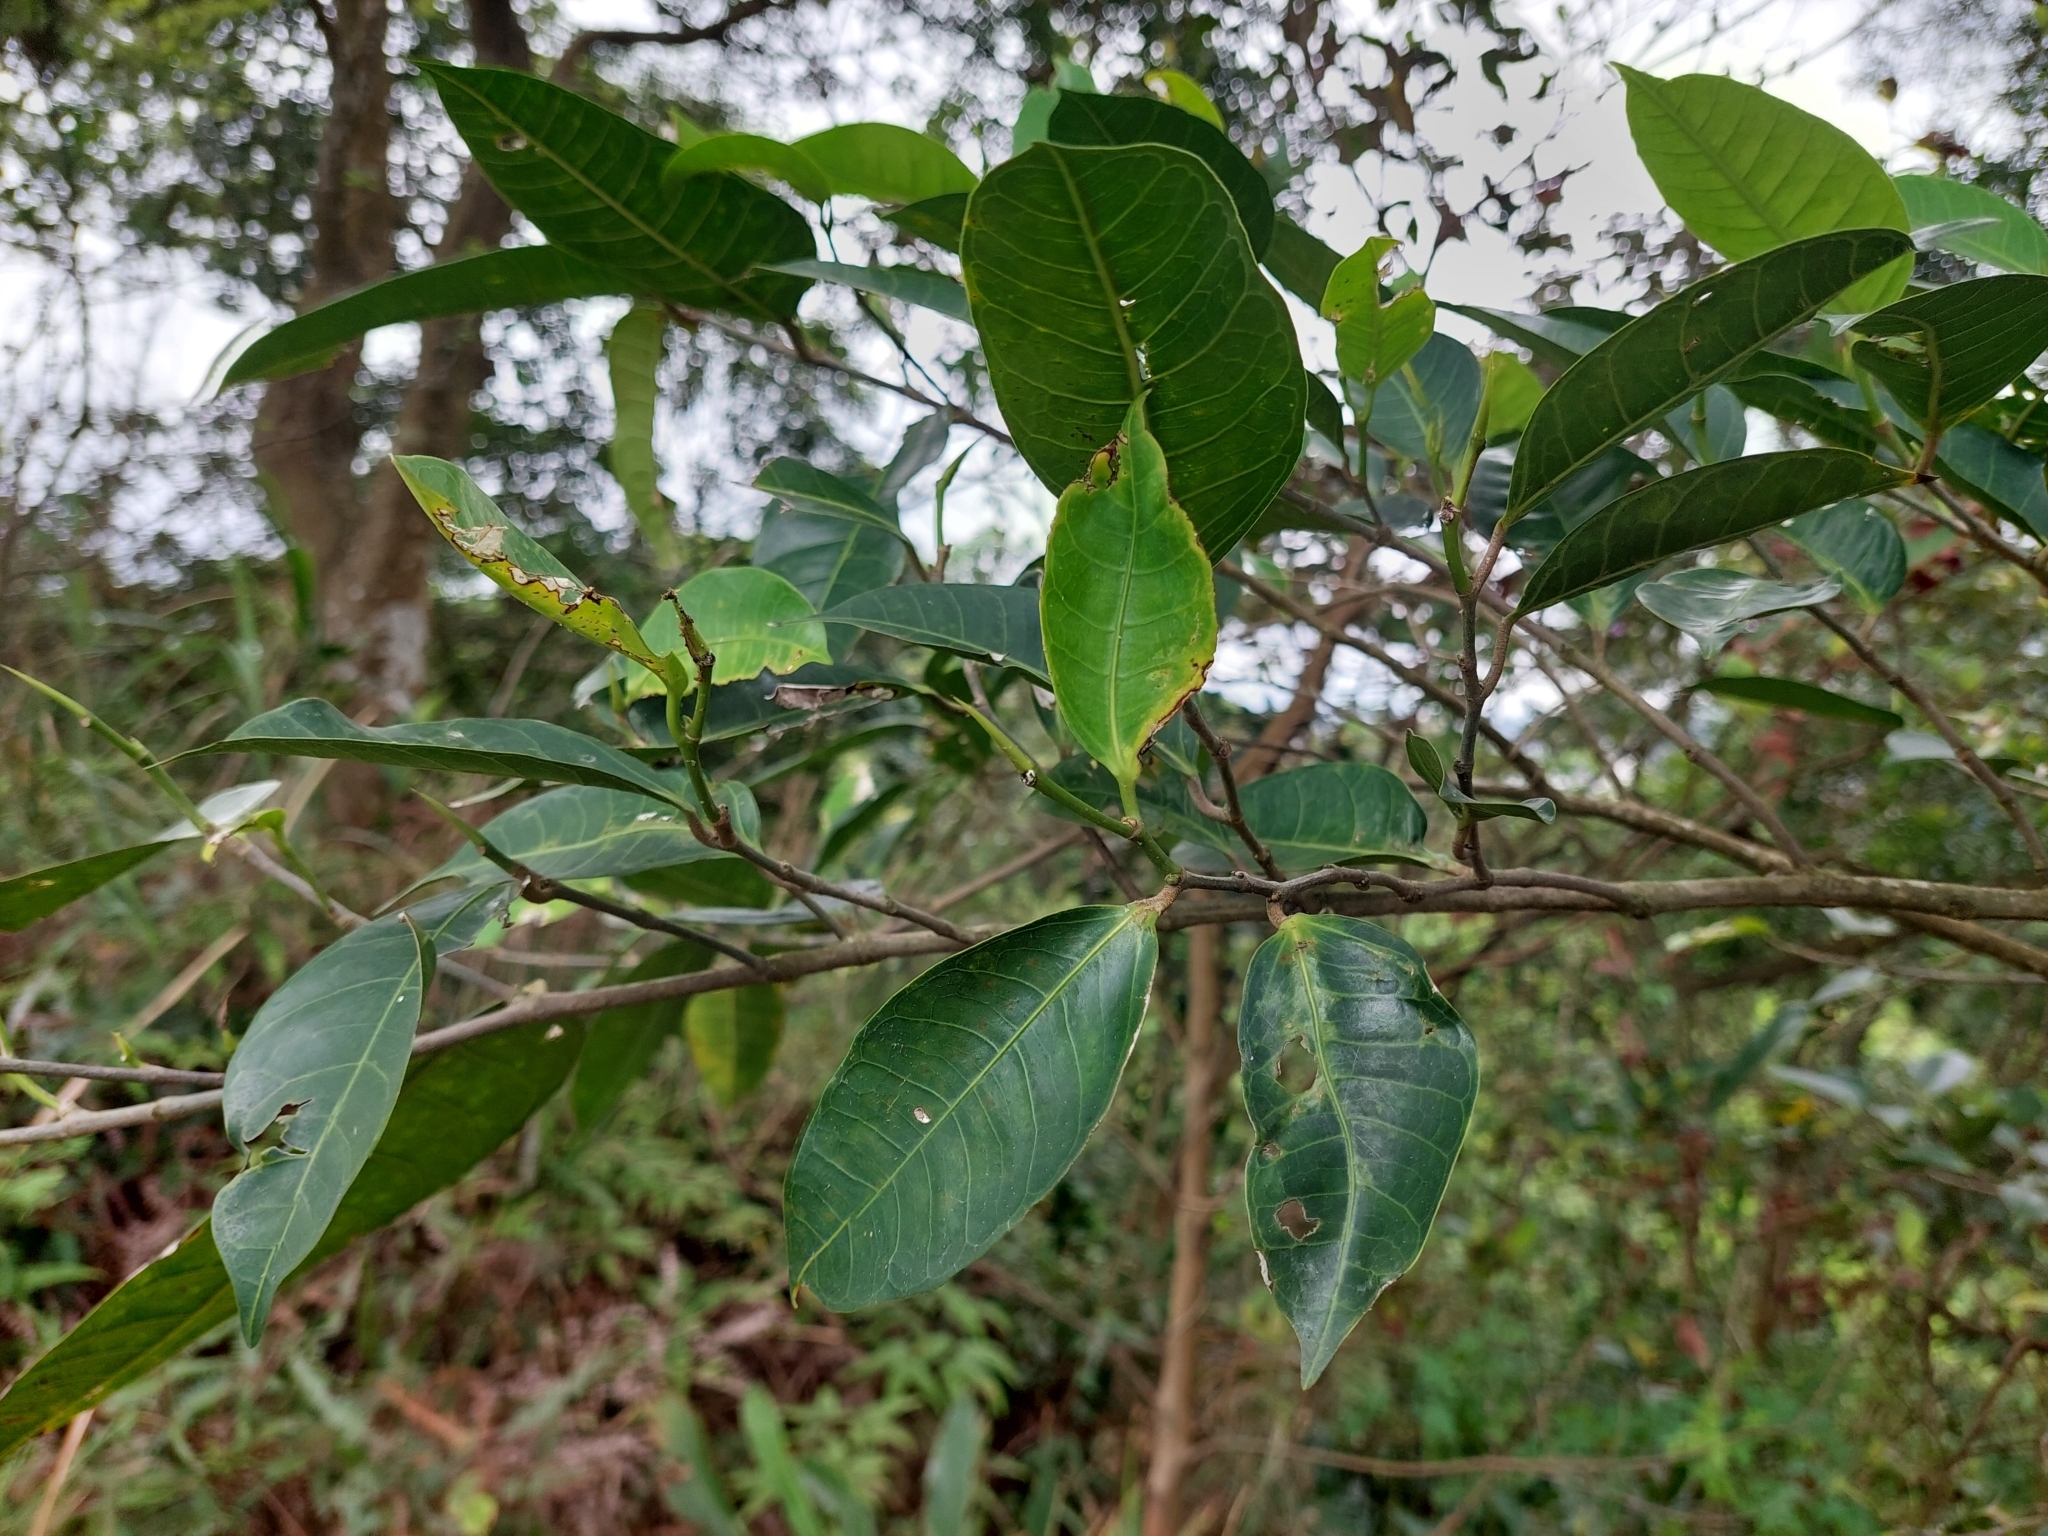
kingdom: Plantae
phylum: Tracheophyta
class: Magnoliopsida
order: Rosales
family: Moraceae
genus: Ficus
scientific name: Ficus virgata
